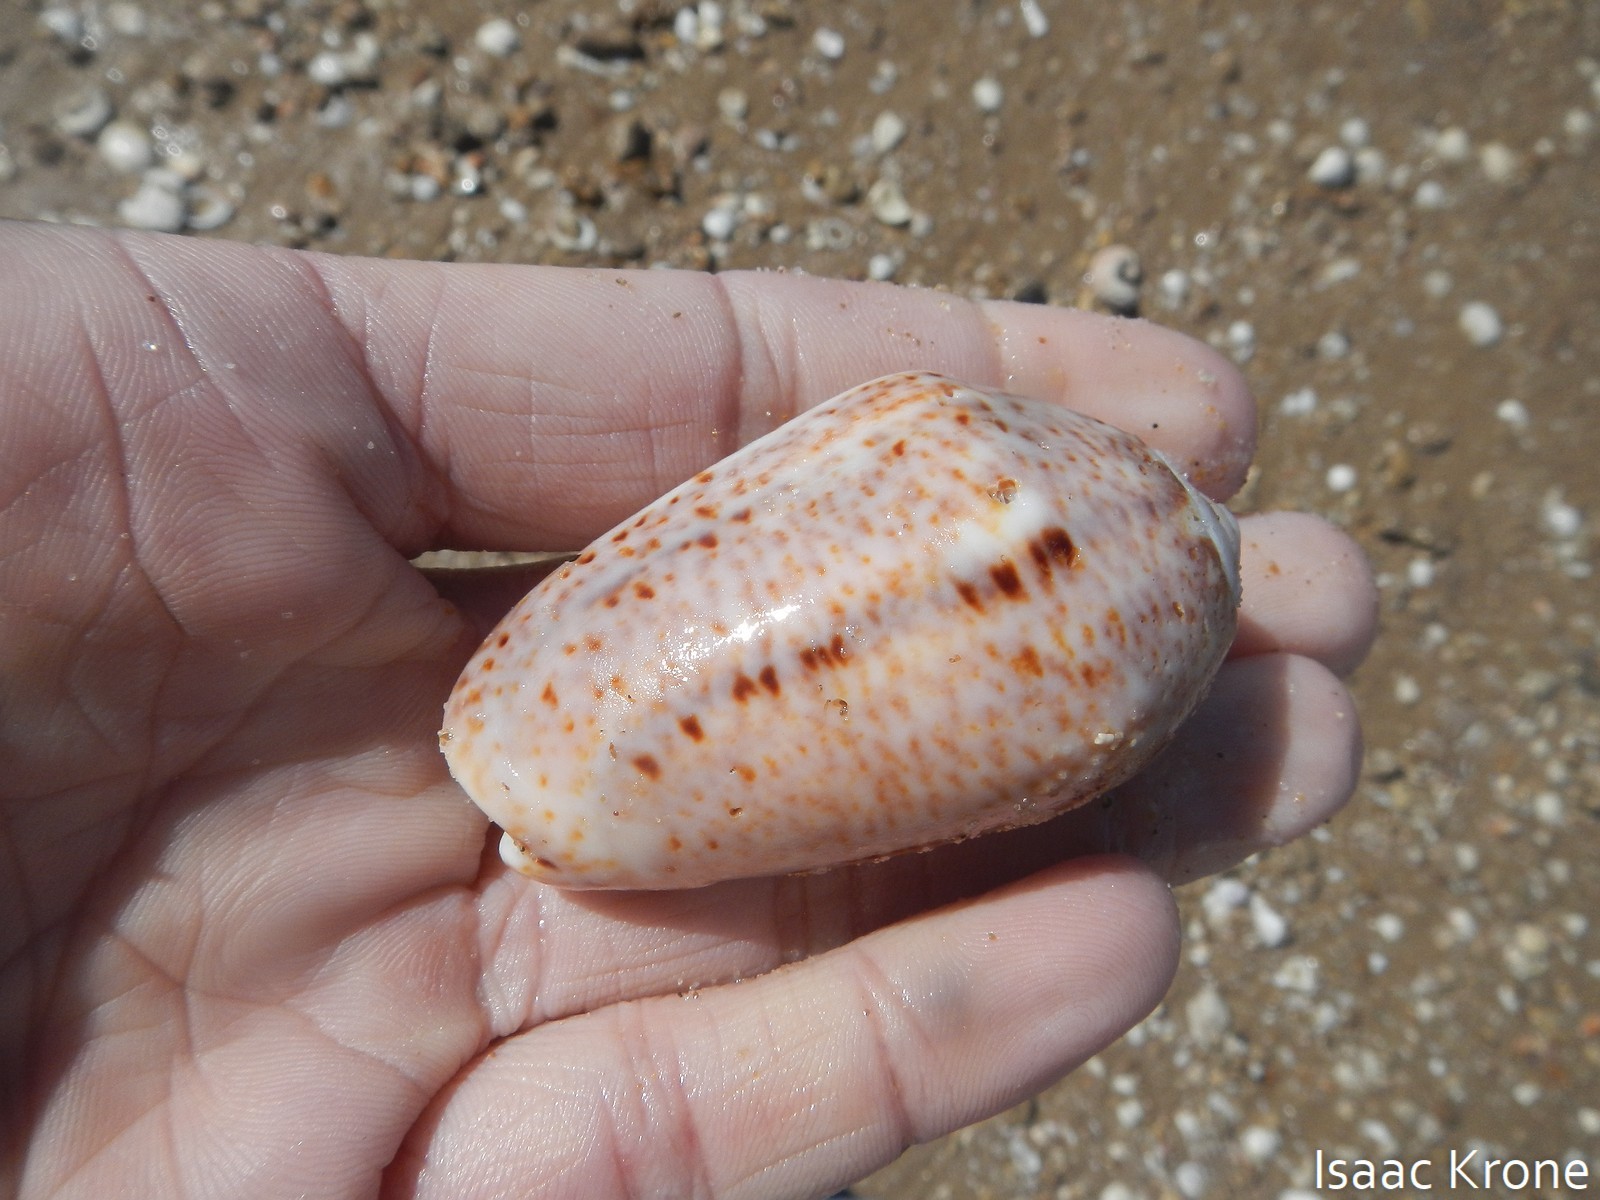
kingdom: Animalia
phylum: Mollusca
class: Gastropoda
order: Neogastropoda
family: Olividae
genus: Oliva
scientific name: Oliva incrassata
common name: Angled olive
